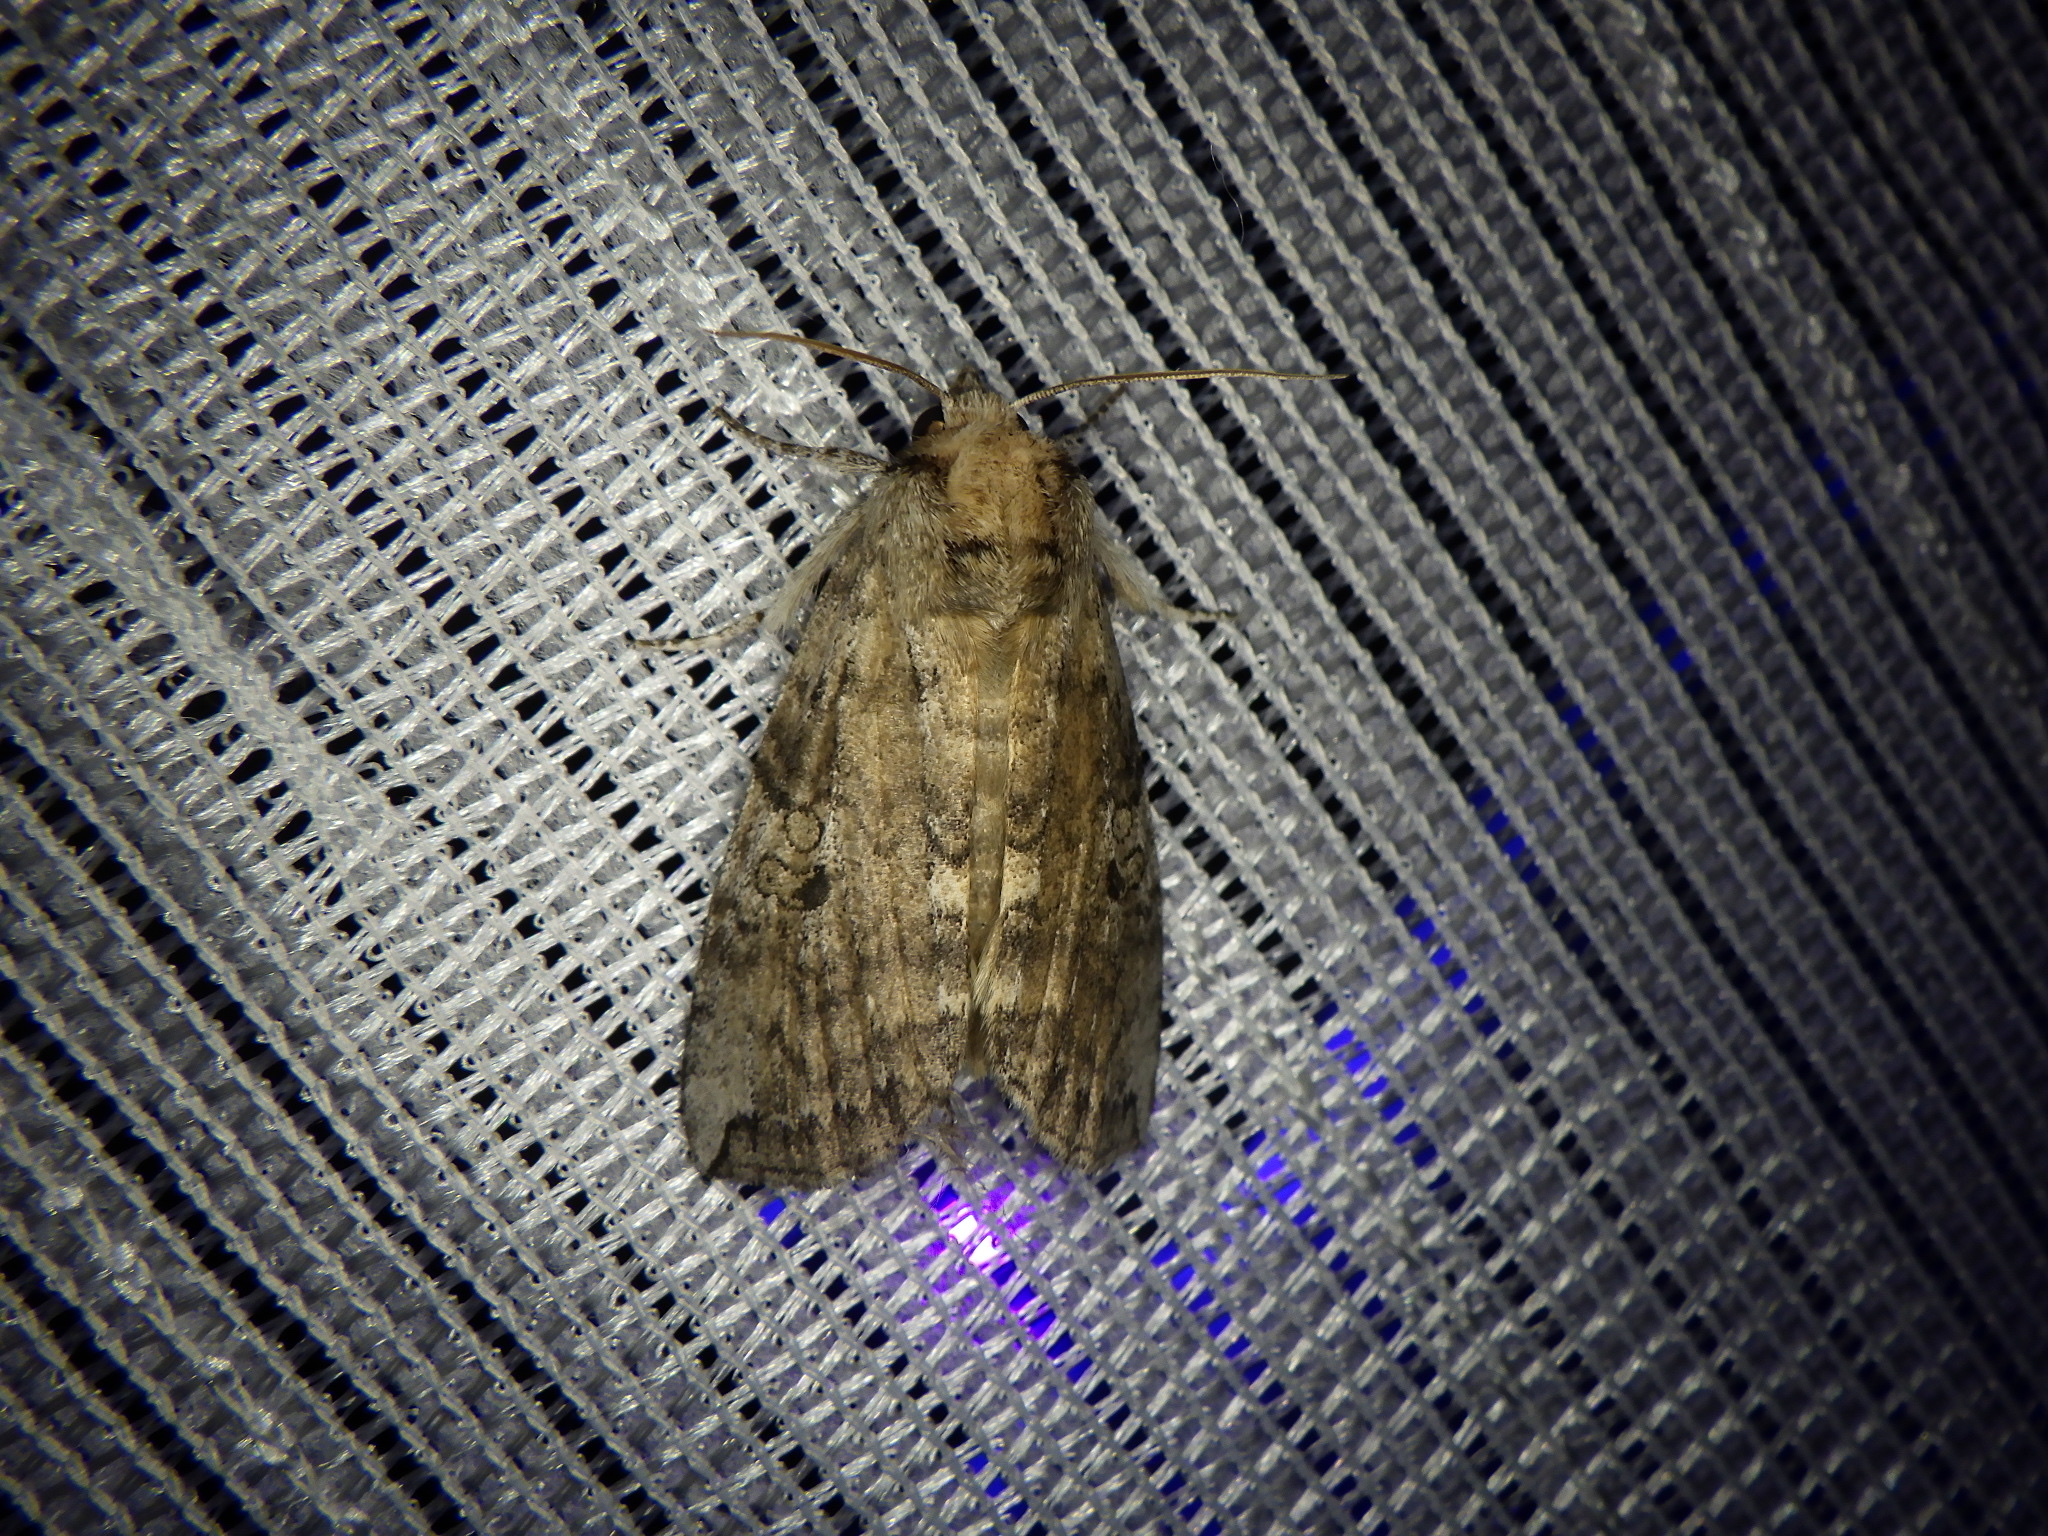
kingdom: Animalia
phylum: Arthropoda
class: Insecta
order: Lepidoptera
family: Drepanidae
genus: Tethea
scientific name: Tethea intensa
